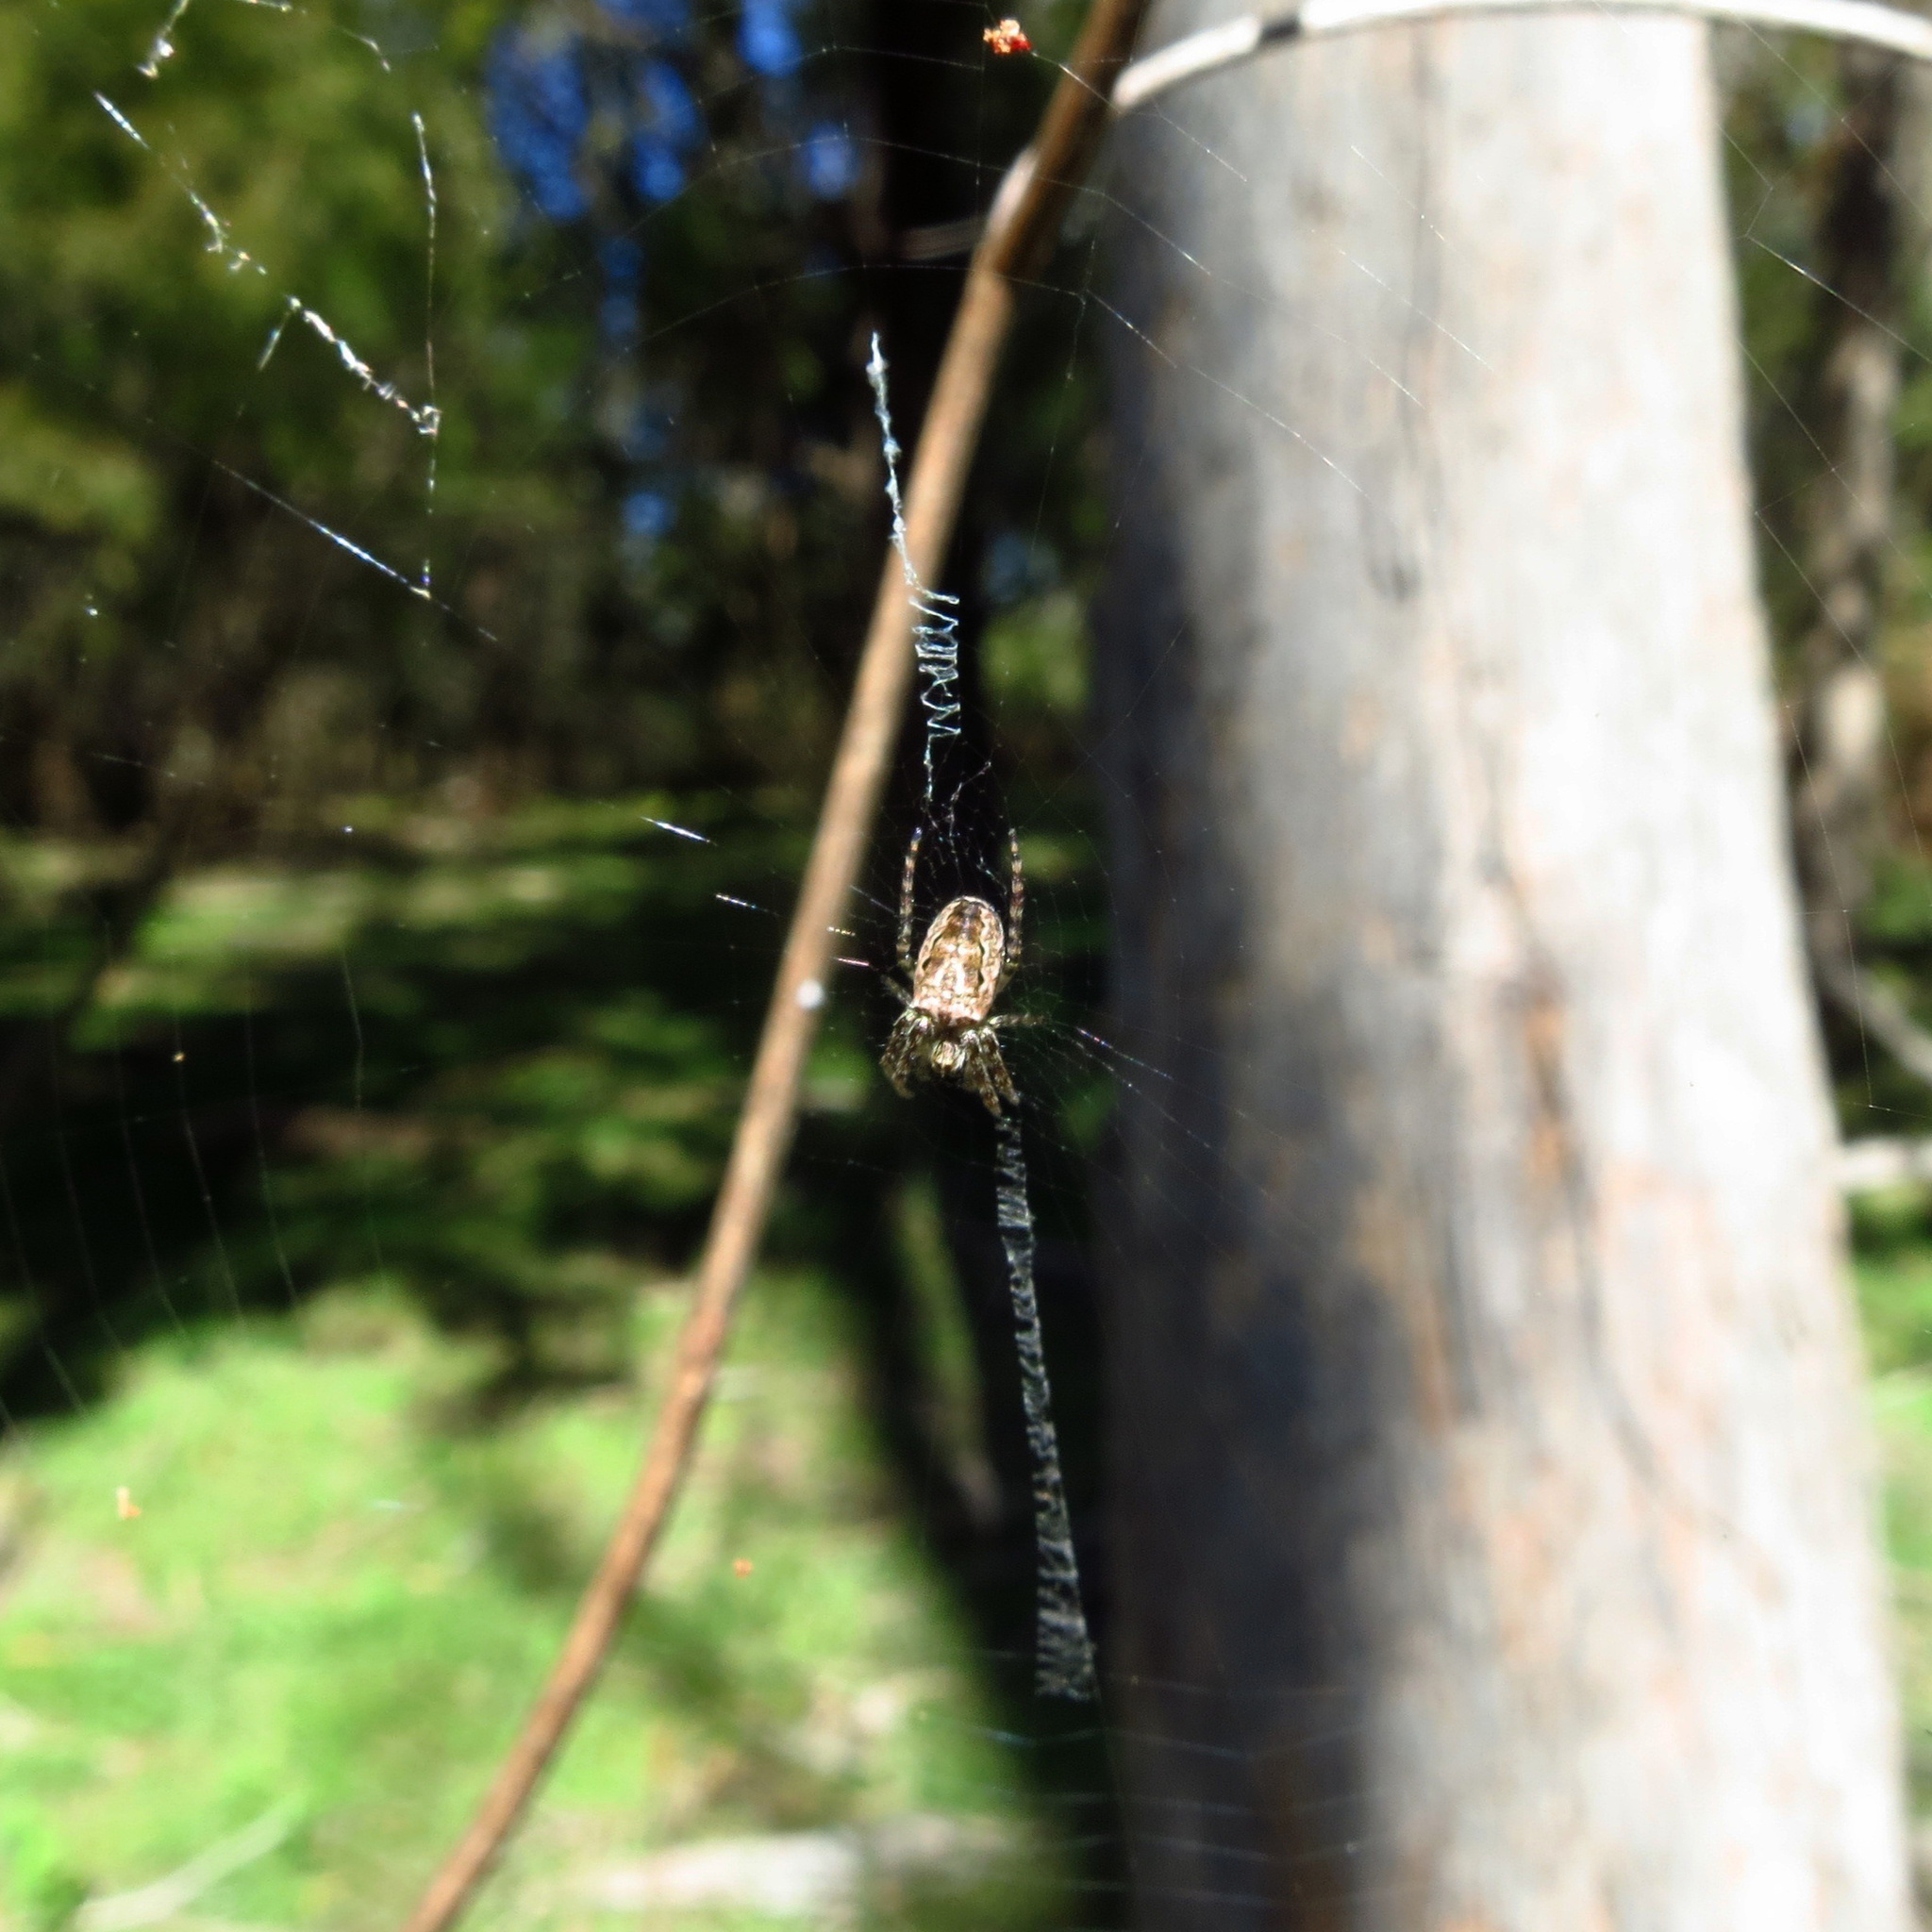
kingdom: Animalia
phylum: Arthropoda
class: Arachnida
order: Araneae
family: Araneidae
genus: Plebs
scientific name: Plebs eburnus
